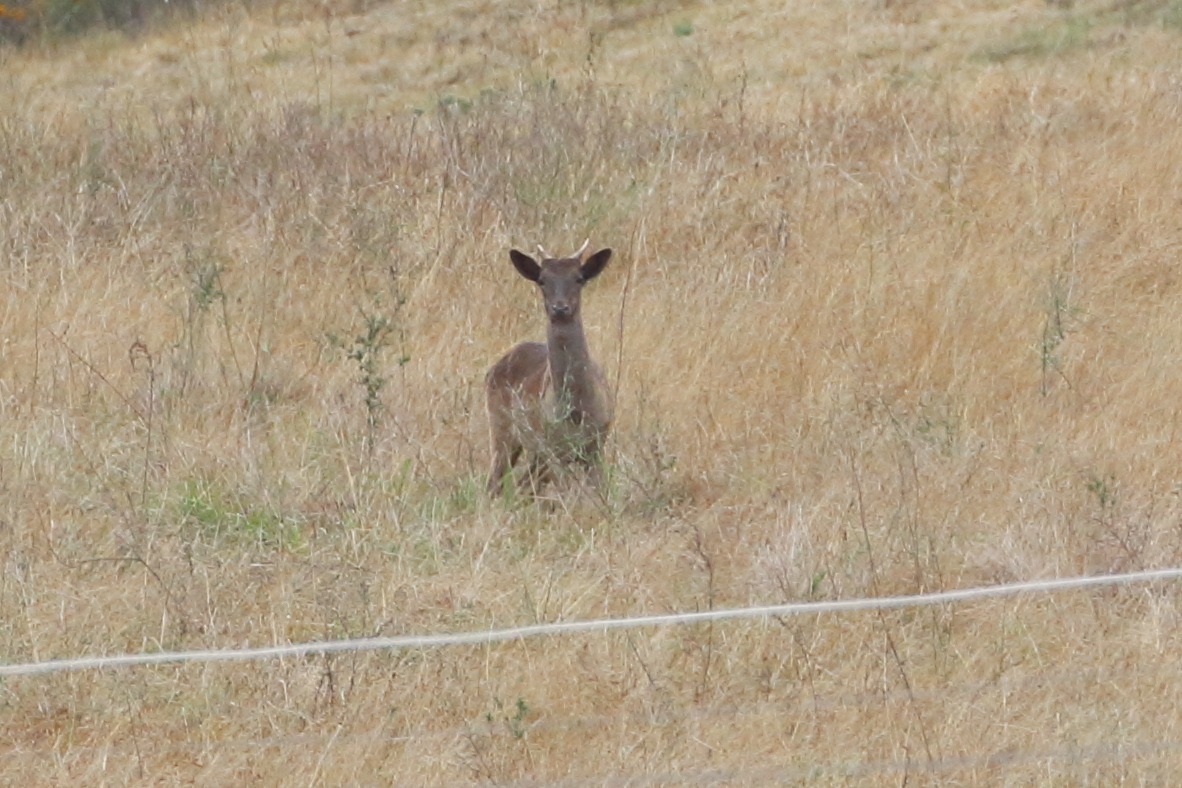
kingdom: Animalia
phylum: Chordata
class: Mammalia
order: Artiodactyla
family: Cervidae
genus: Dama
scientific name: Dama dama
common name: Fallow deer
